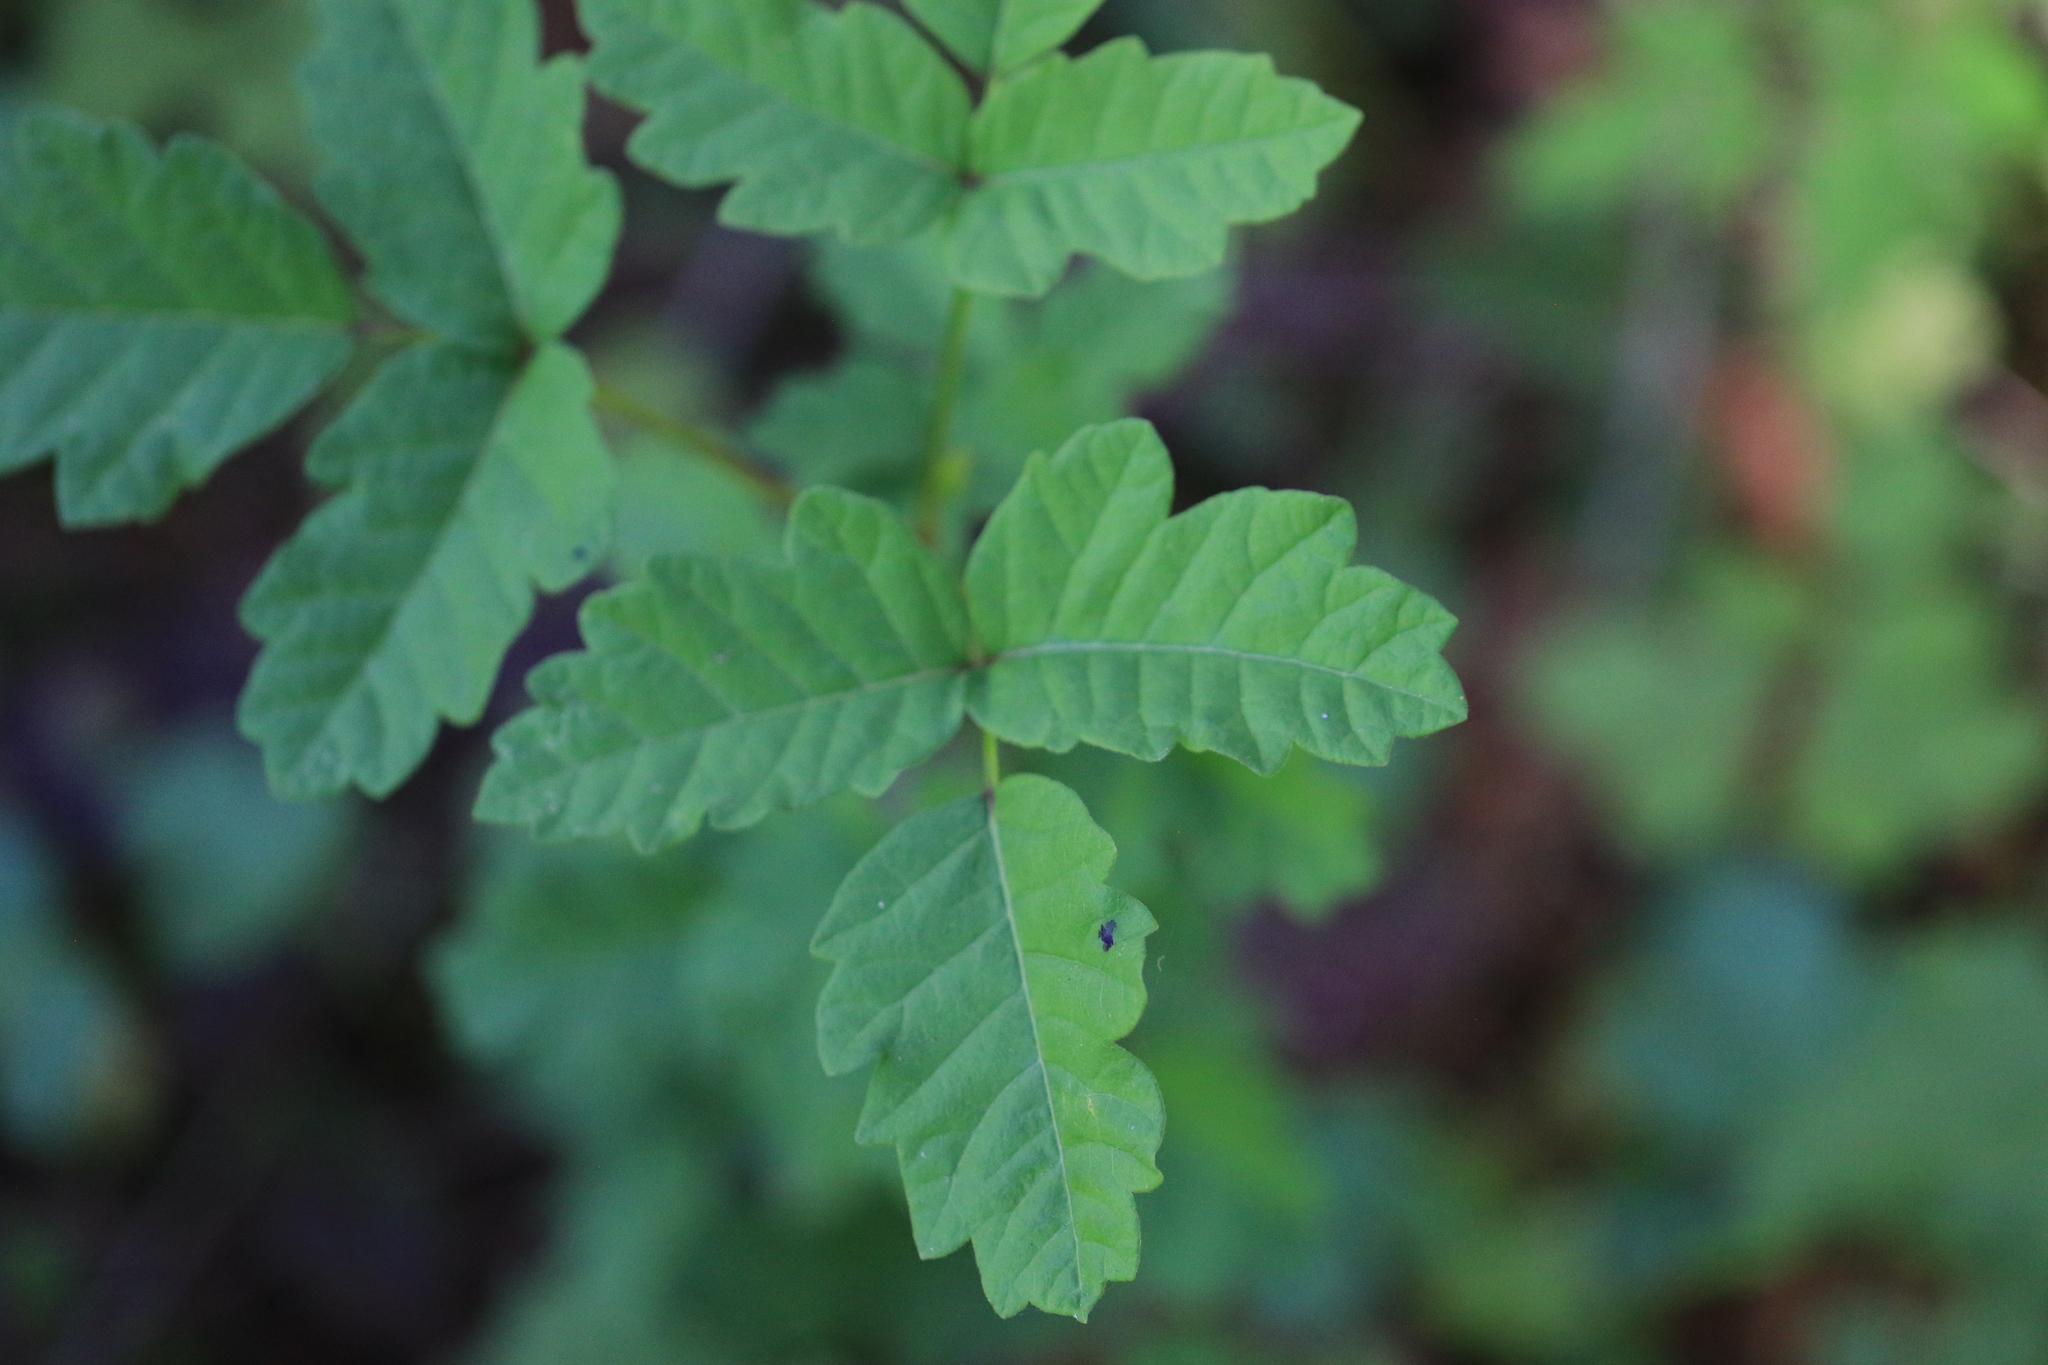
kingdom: Plantae
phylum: Tracheophyta
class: Magnoliopsida
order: Sapindales
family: Anacardiaceae
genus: Toxicodendron
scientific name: Toxicodendron diversilobum
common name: Pacific poison-oak
